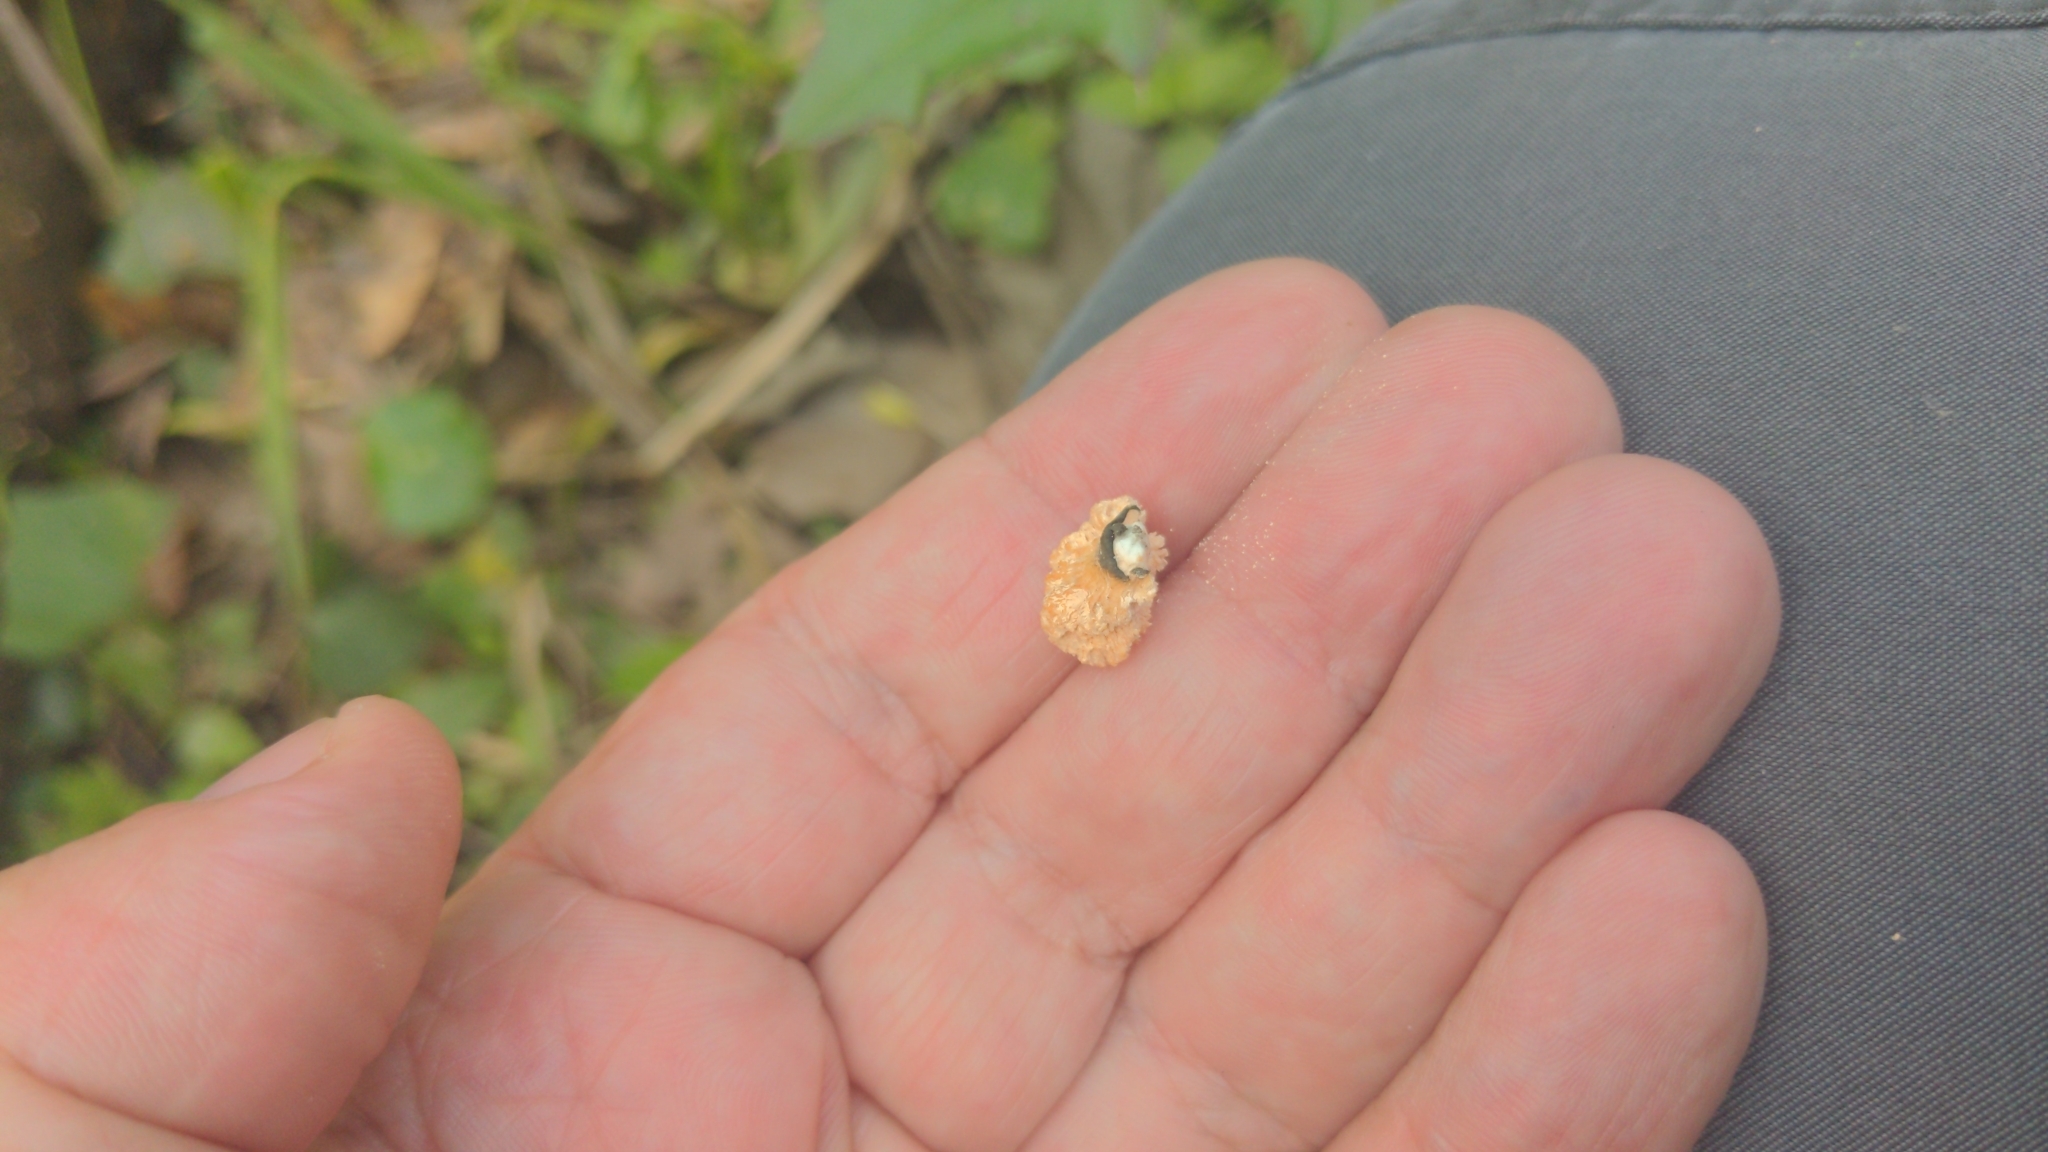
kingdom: Fungi
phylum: Ascomycota
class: Sordariomycetes
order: Xylariales
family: Xylariaceae
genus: Xylaria
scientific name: Xylaria cubensis
